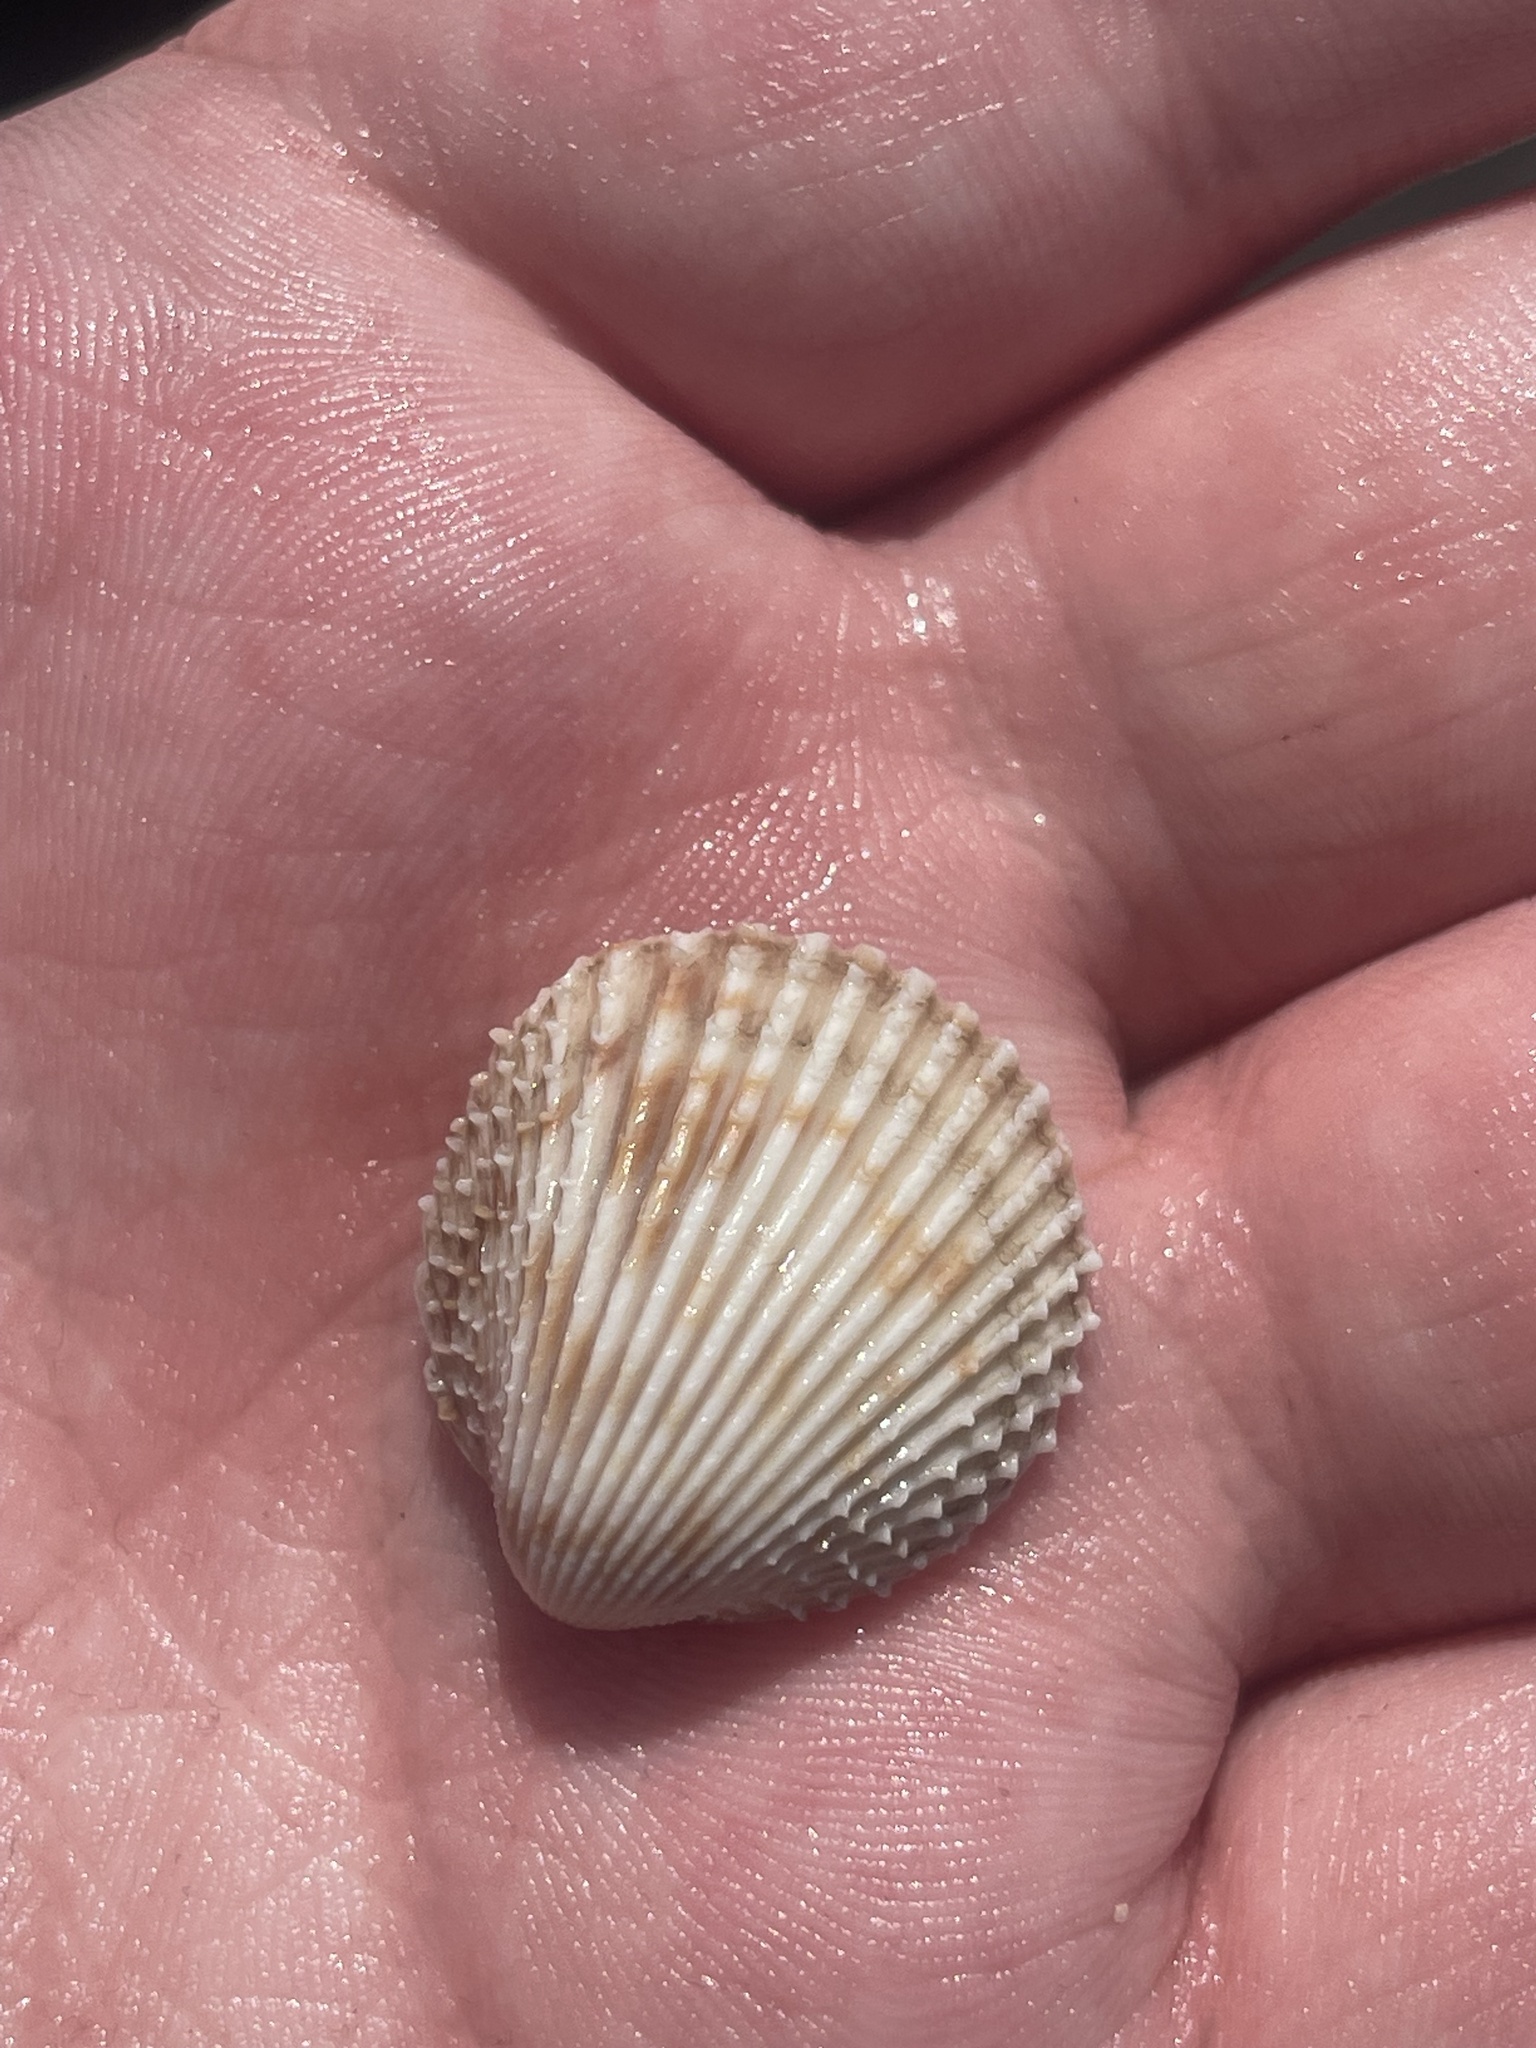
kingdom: Animalia
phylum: Mollusca
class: Bivalvia
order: Cardiida
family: Cardiidae
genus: Trachycardium
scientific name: Trachycardium egmontianum
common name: Florida pricklycockle
